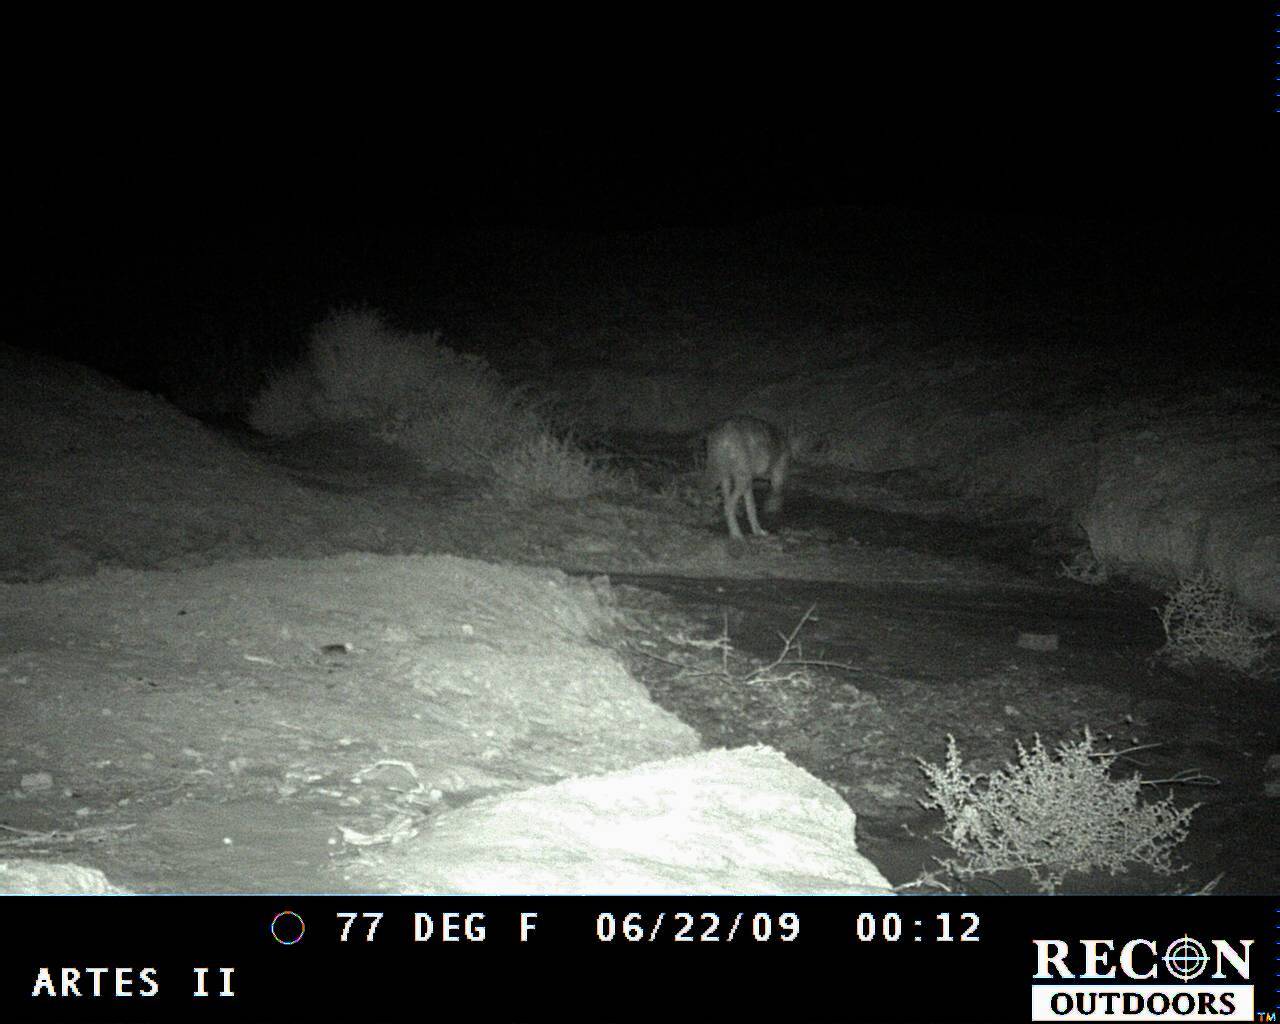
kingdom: Animalia
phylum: Chordata
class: Mammalia
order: Carnivora
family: Canidae
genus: Canis
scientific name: Canis latrans
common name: Coyote
